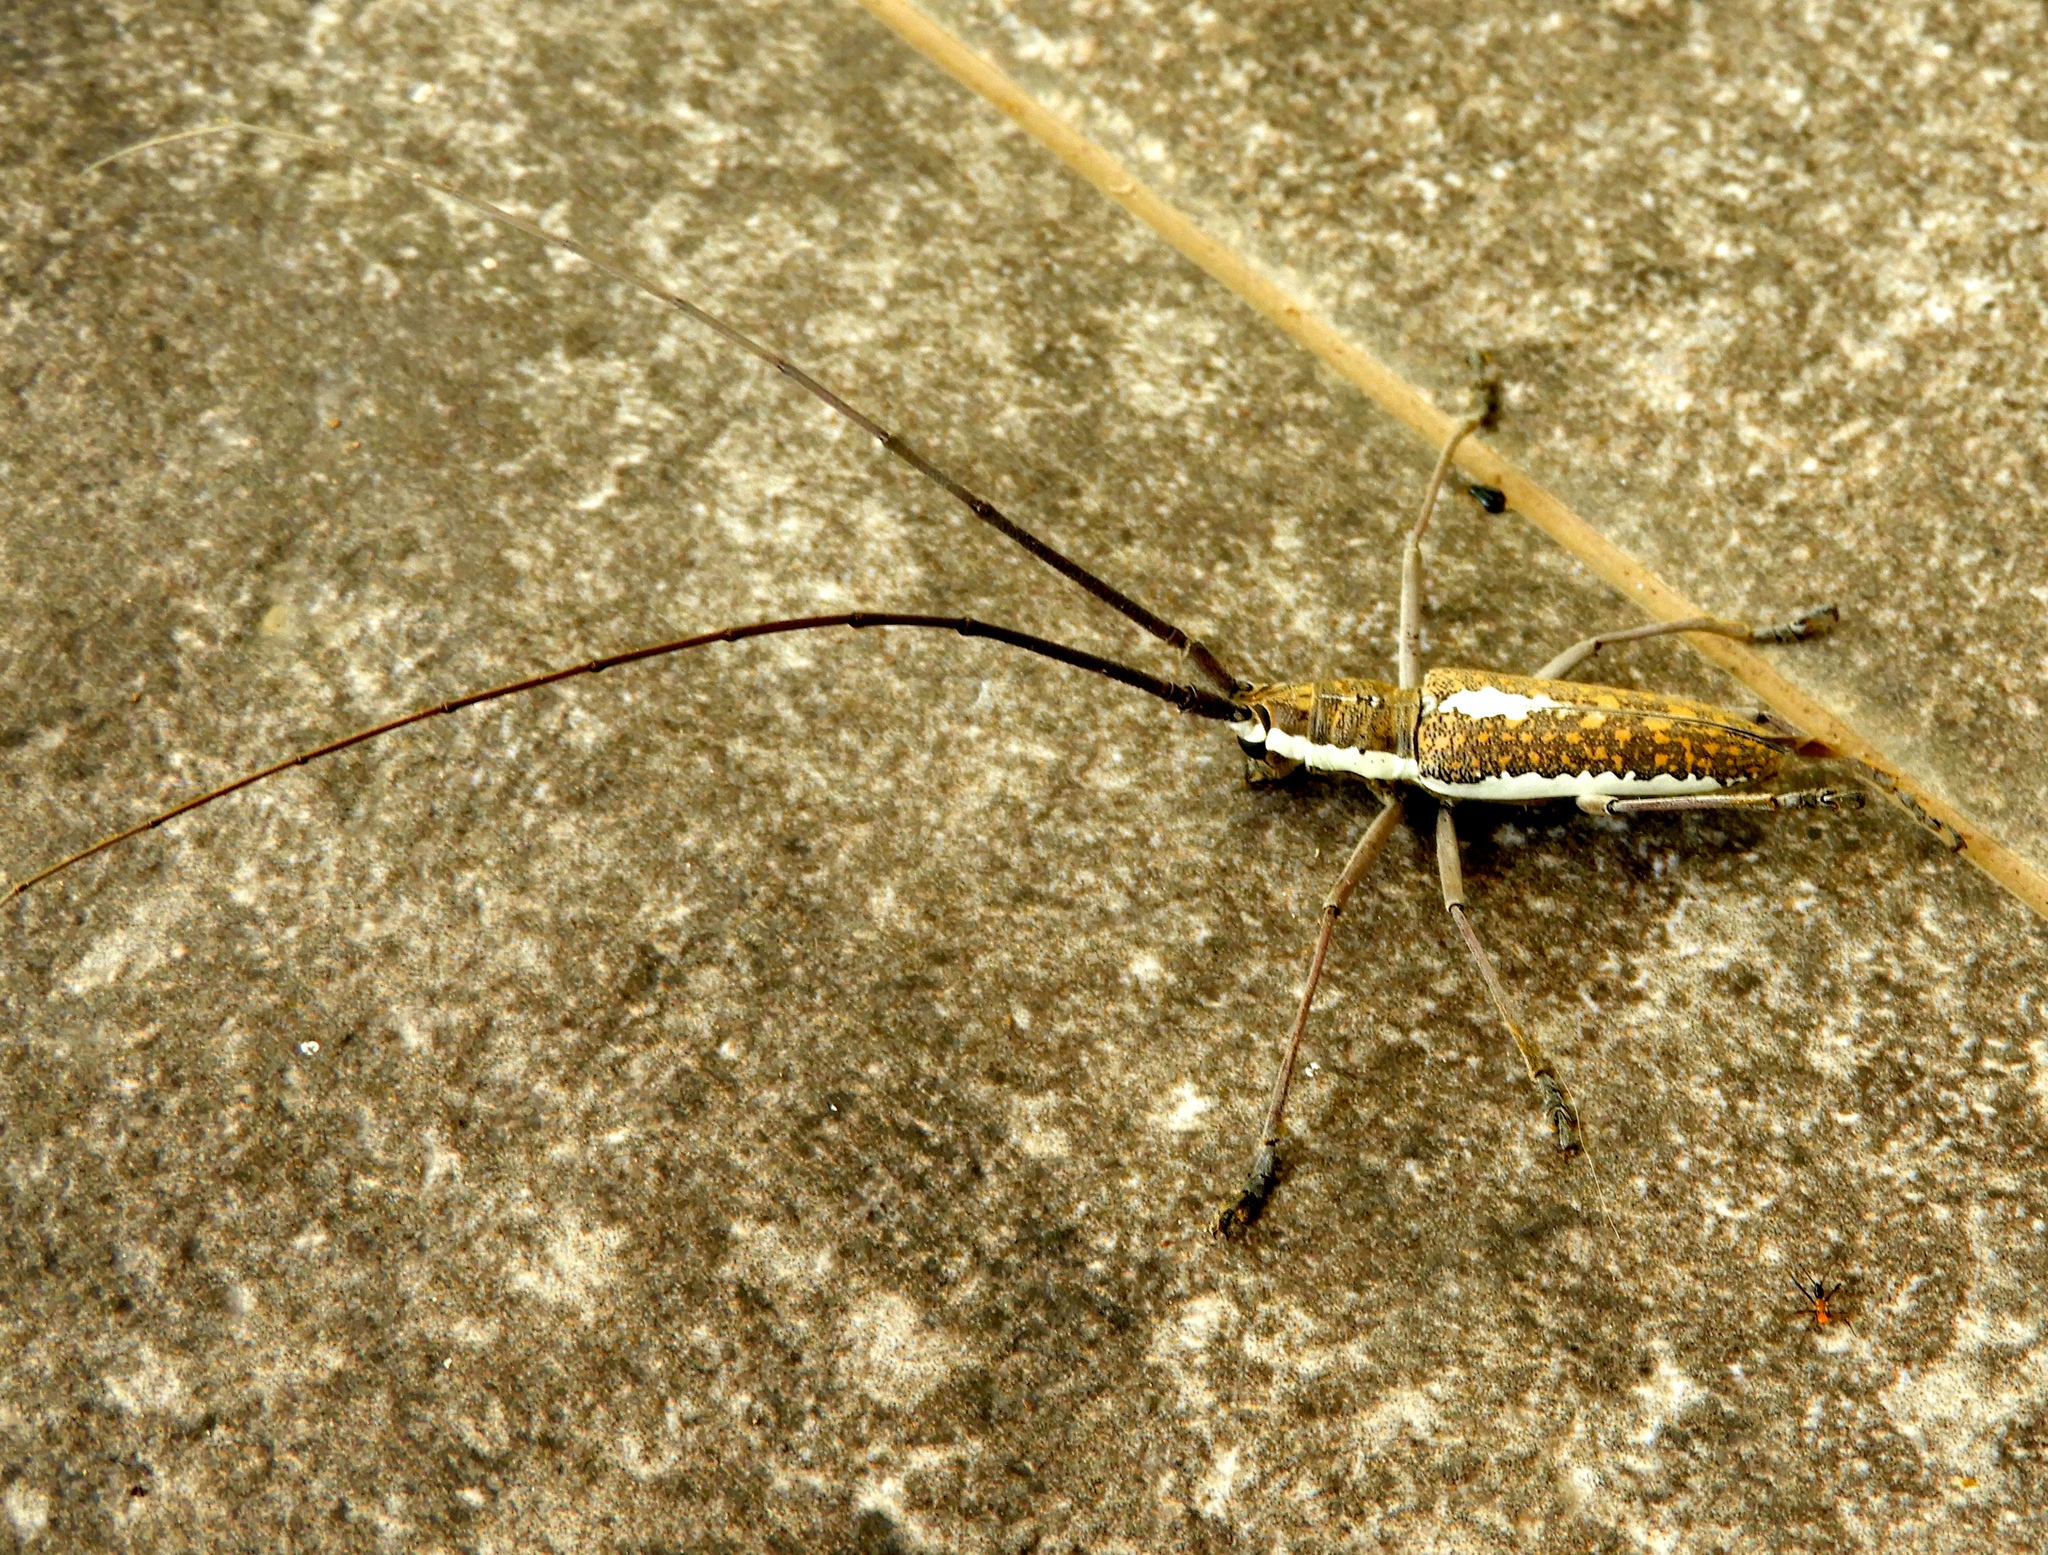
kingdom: Animalia
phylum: Arthropoda
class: Insecta
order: Coleoptera
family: Cerambycidae
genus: Neoptychodes
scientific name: Neoptychodes trilineatus
